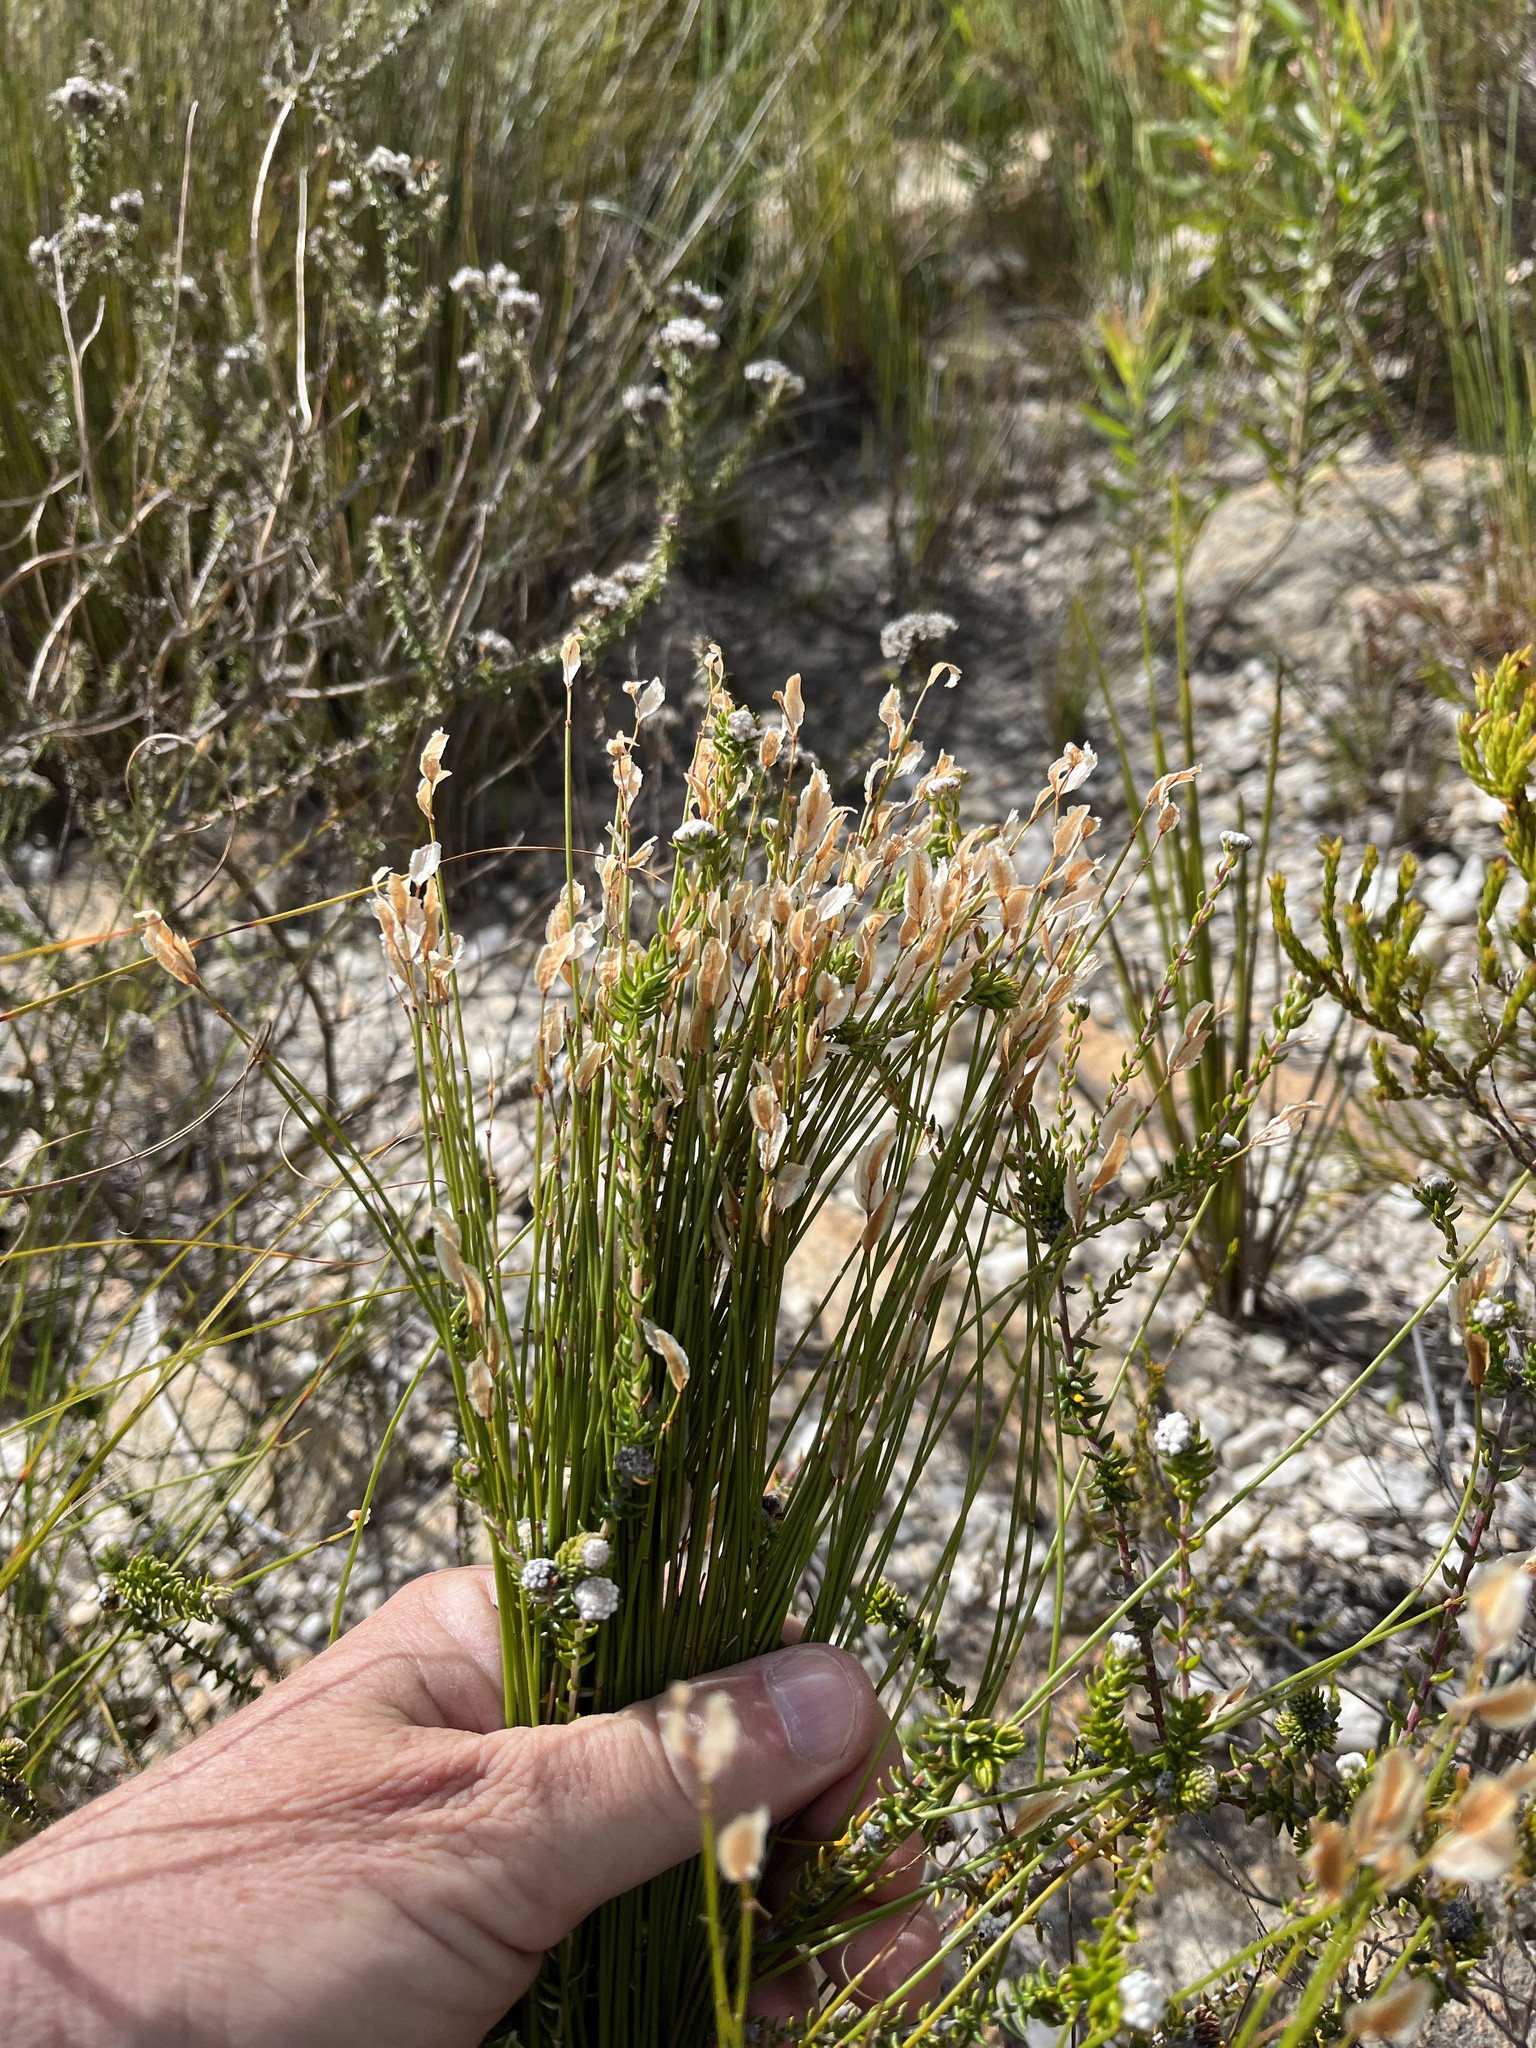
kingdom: Plantae
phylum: Tracheophyta
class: Liliopsida
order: Poales
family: Restionaceae
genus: Elegia
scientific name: Elegia filacea
